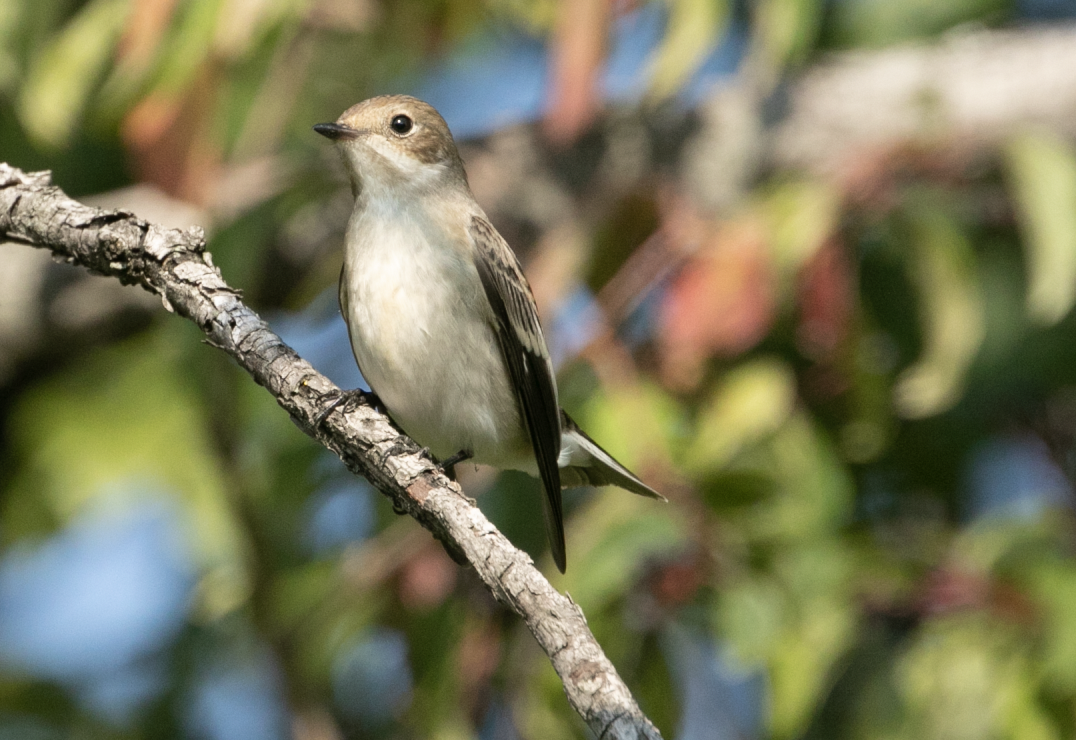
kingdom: Animalia
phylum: Chordata
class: Aves
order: Passeriformes
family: Muscicapidae
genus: Ficedula
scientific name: Ficedula hypoleuca
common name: European pied flycatcher
